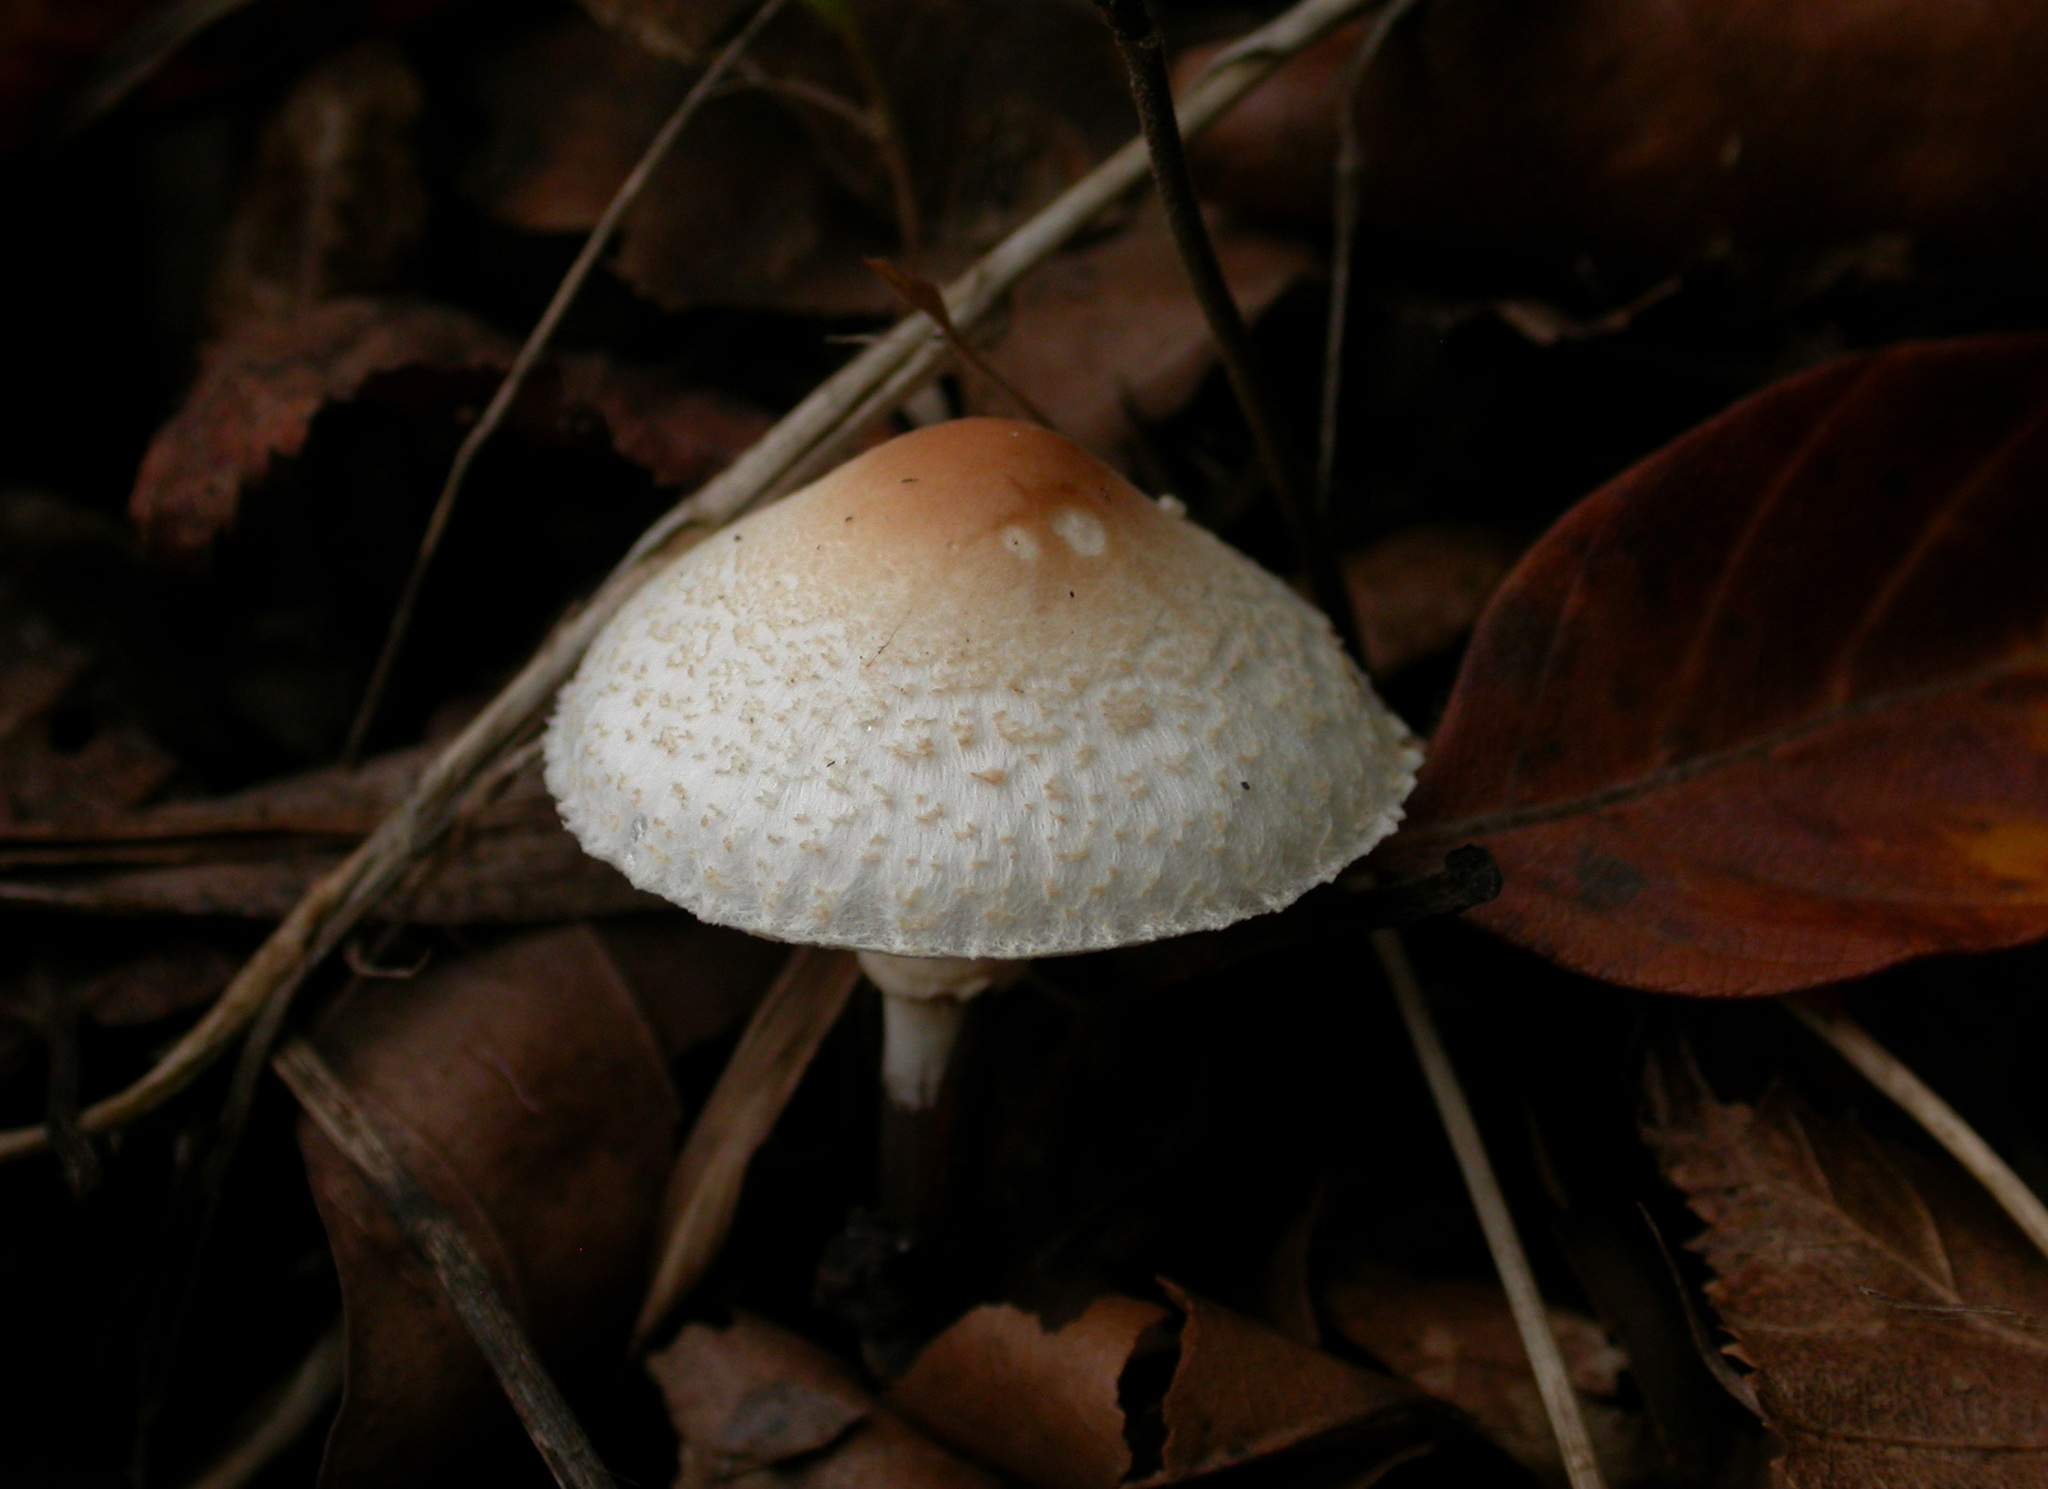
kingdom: Fungi
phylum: Basidiomycota
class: Agaricomycetes
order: Agaricales
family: Agaricaceae
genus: Lepiota
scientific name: Lepiota cristata
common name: Stinking dapperling
